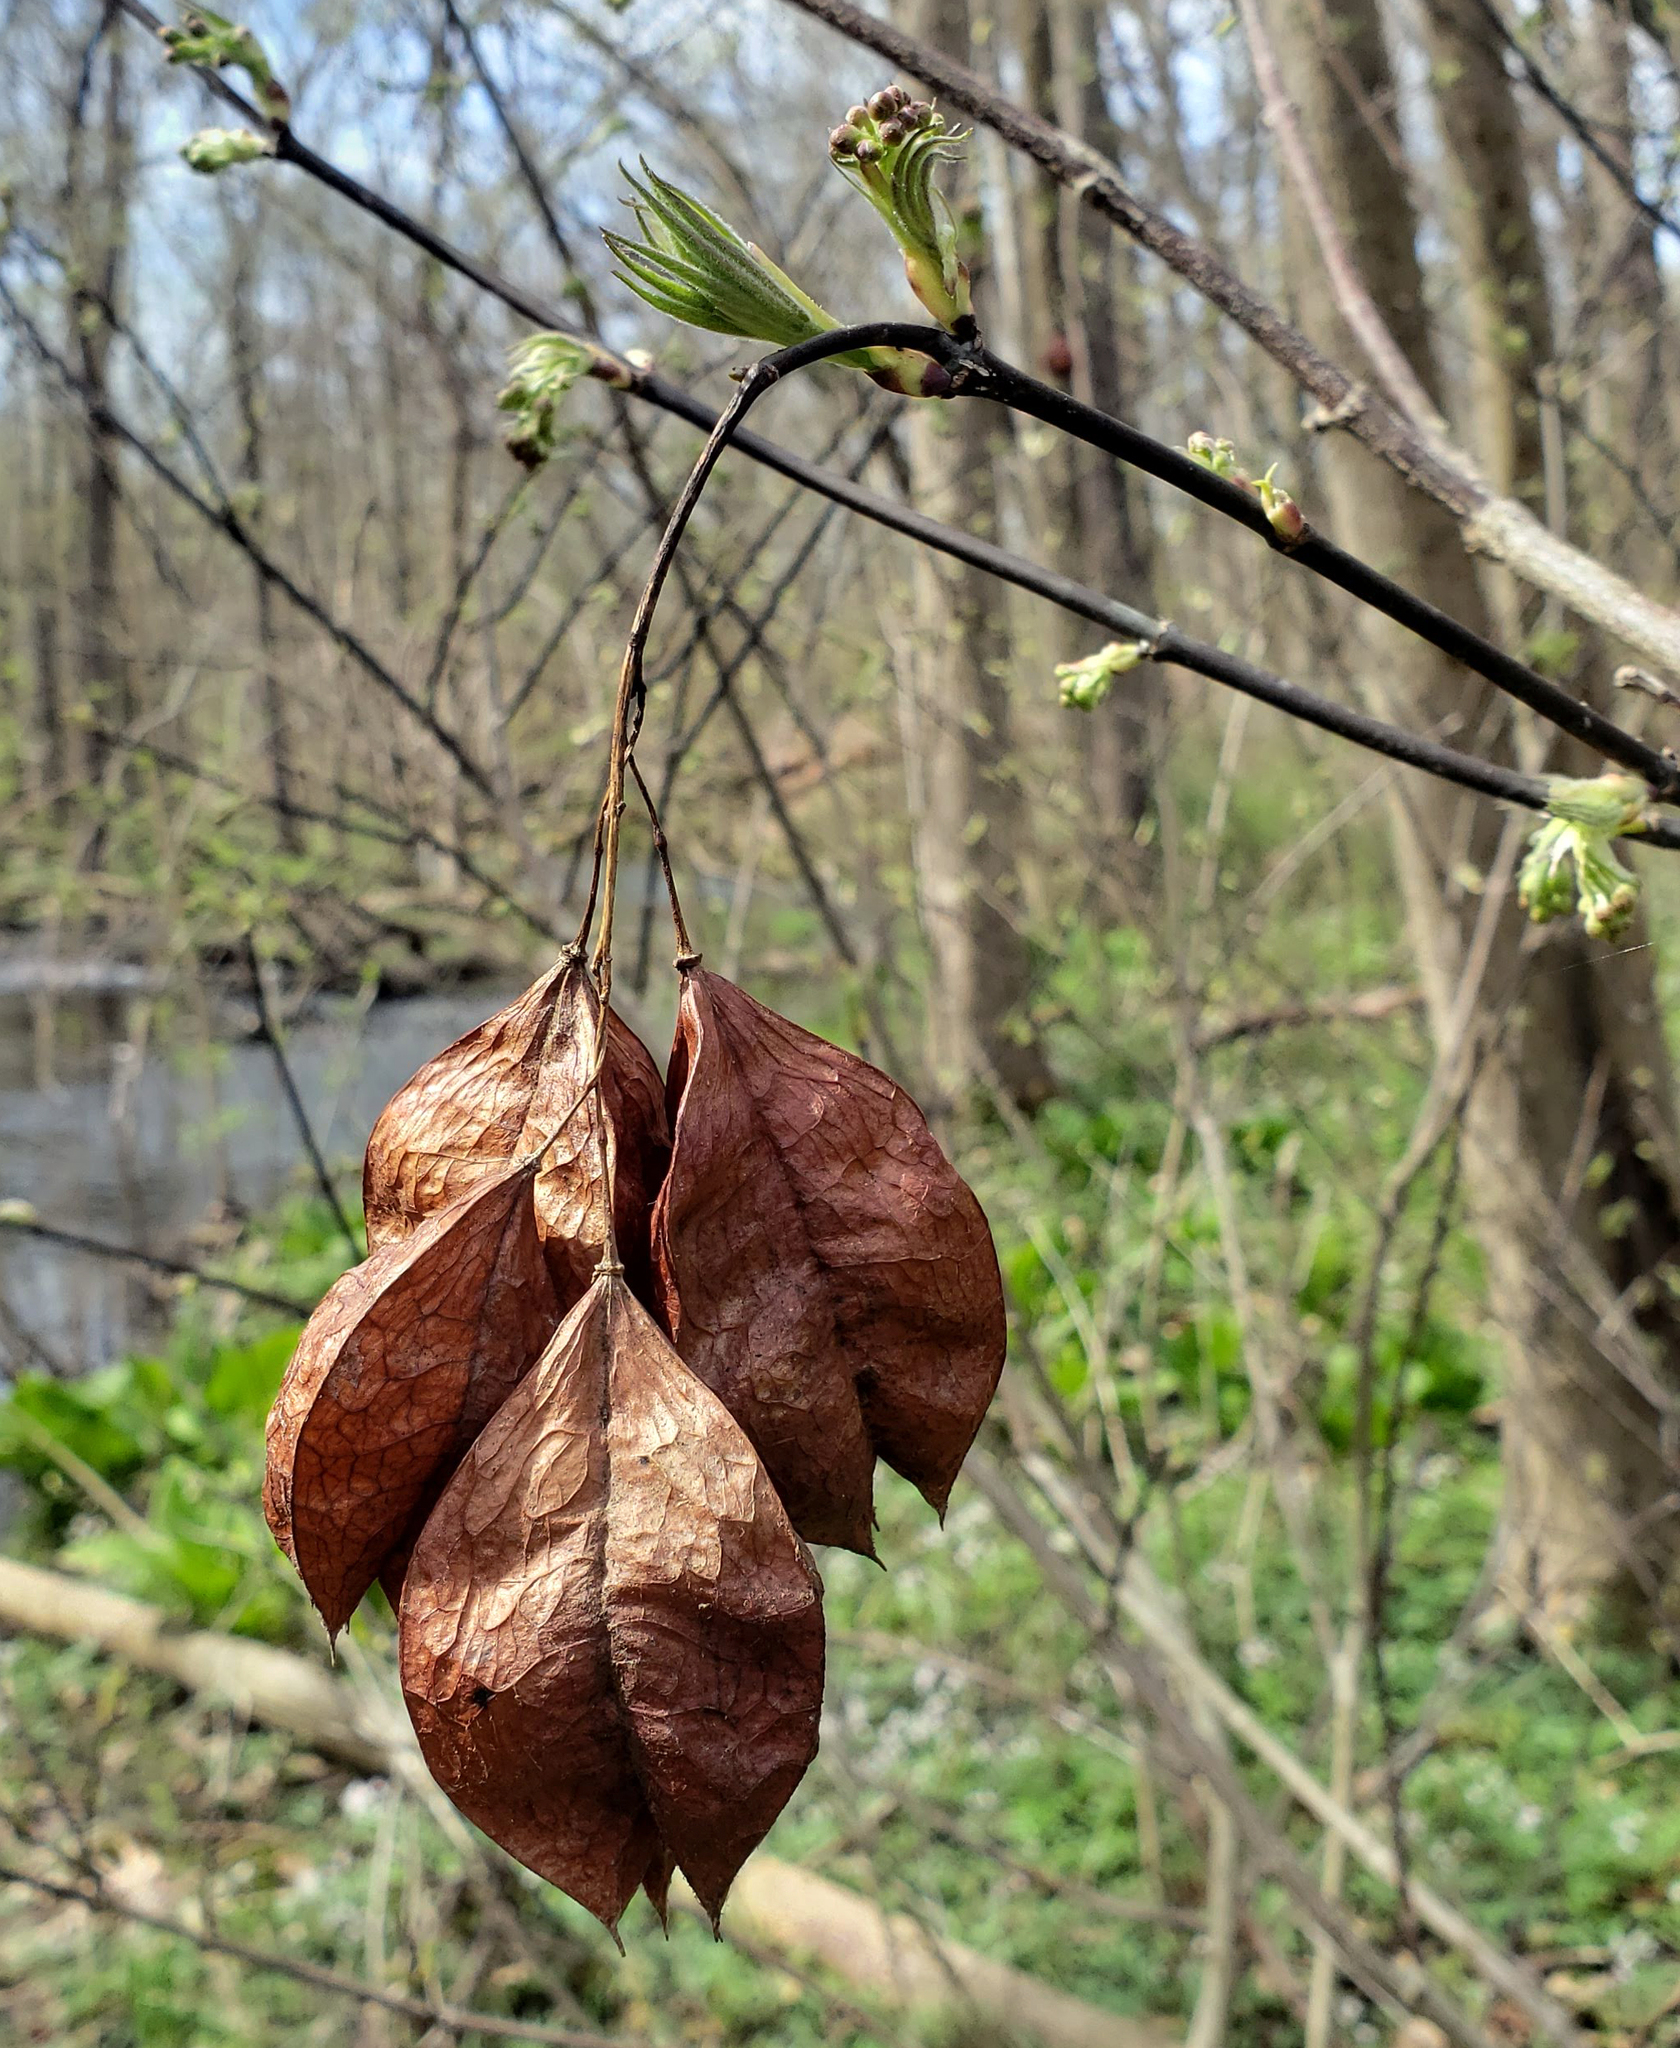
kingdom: Plantae
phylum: Tracheophyta
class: Magnoliopsida
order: Crossosomatales
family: Staphyleaceae
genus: Staphylea
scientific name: Staphylea trifolia
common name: American bladdernut
